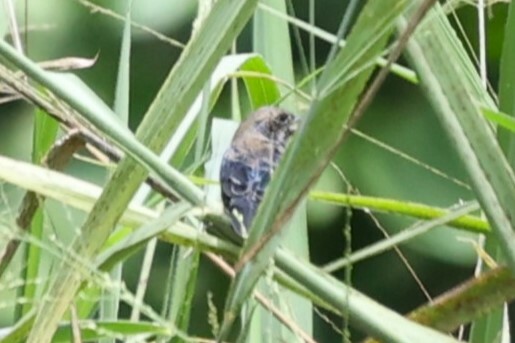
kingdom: Animalia
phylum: Chordata
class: Aves
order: Passeriformes
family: Thraupidae
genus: Volatinia
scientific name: Volatinia jacarina
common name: Blue-black grassquit
